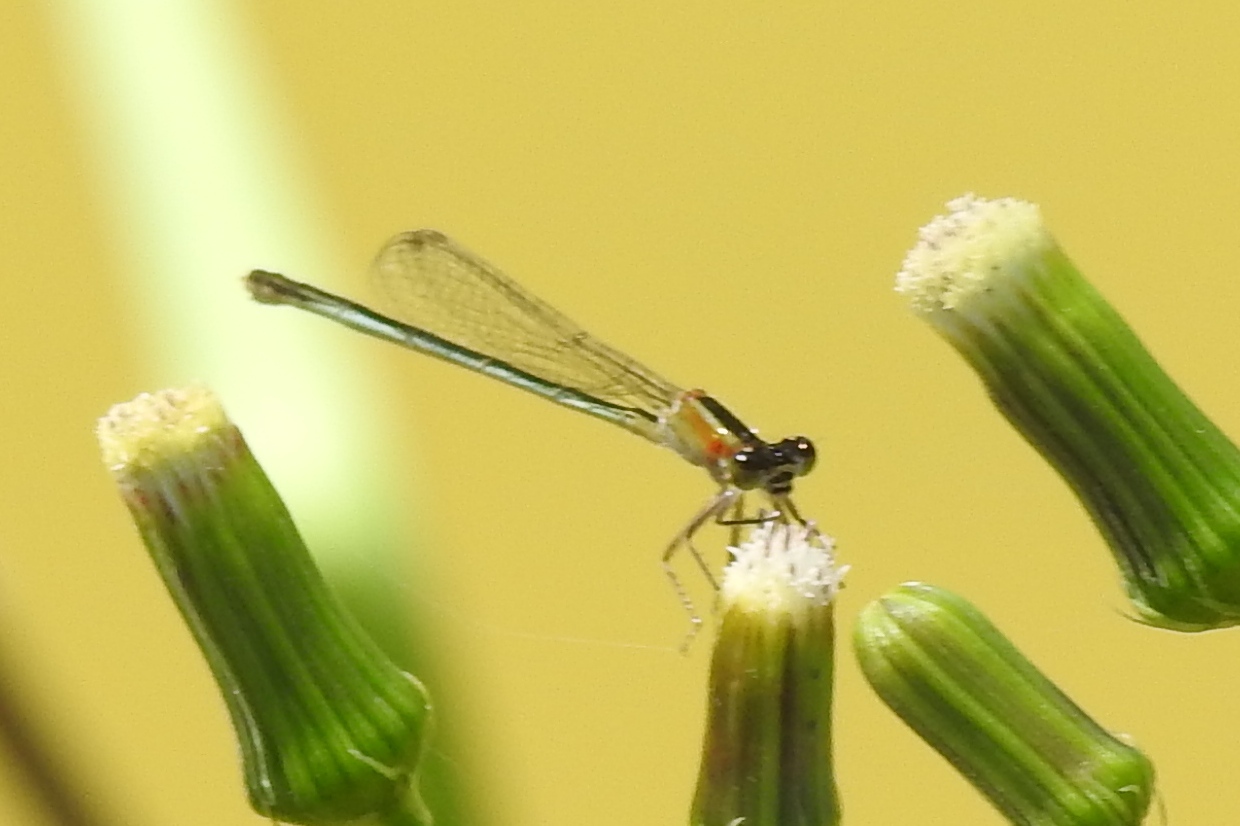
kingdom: Animalia
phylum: Arthropoda
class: Insecta
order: Odonata
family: Coenagrionidae
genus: Ischnura
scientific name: Ischnura ramburii
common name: Rambur's forktail
